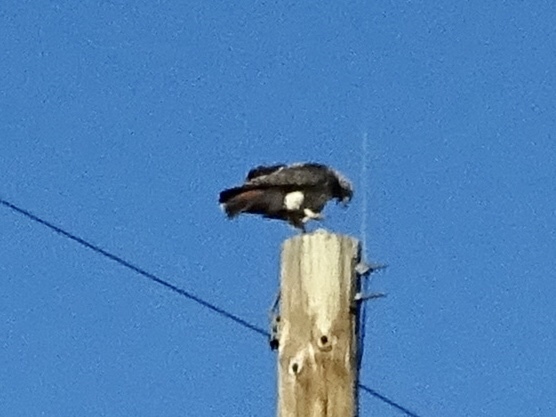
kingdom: Animalia
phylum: Chordata
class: Aves
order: Accipitriformes
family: Accipitridae
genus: Buteo
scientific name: Buteo jamaicensis
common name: Red-tailed hawk
